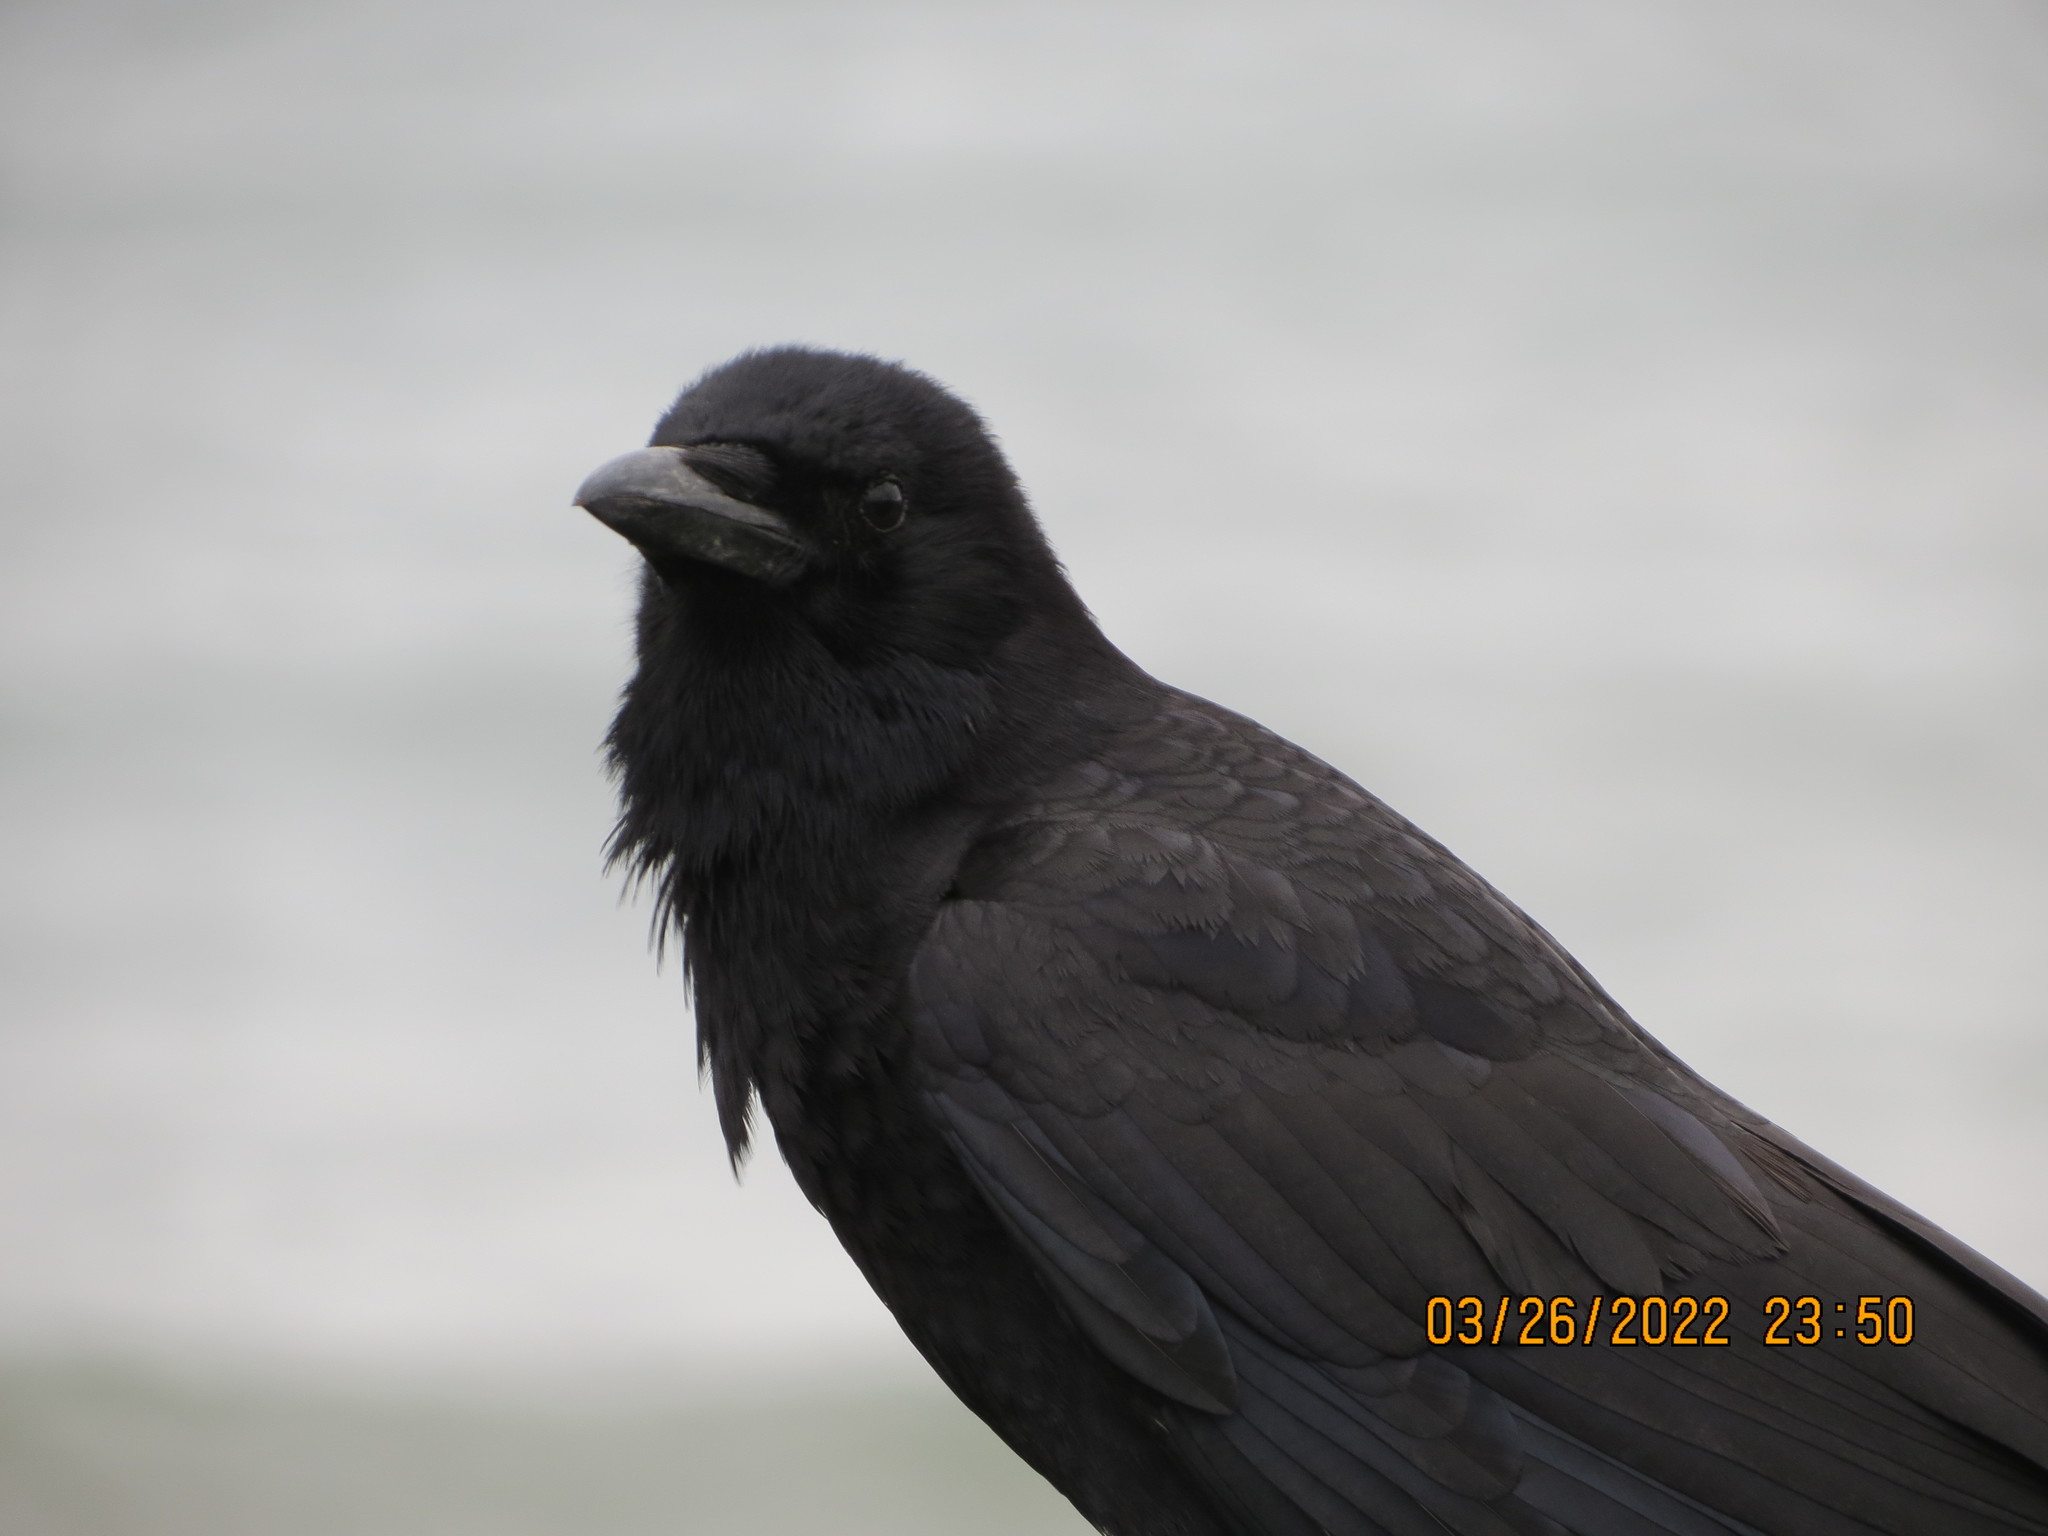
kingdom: Animalia
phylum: Chordata
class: Aves
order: Passeriformes
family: Corvidae
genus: Corvus
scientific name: Corvus brachyrhynchos
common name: American crow
